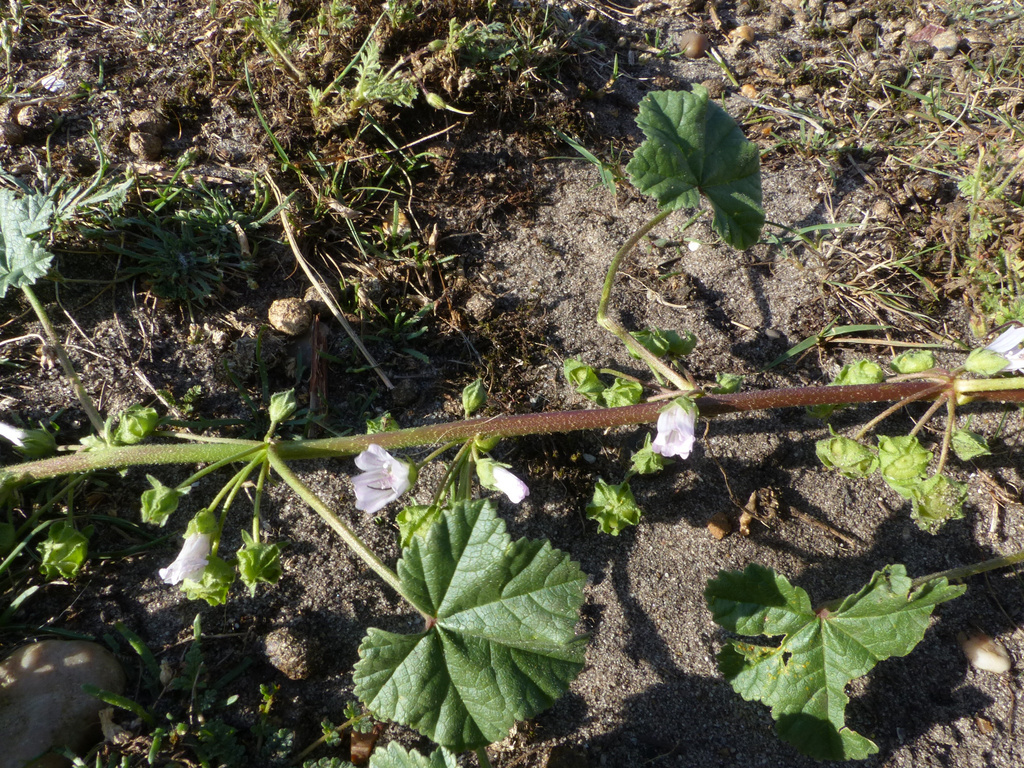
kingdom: Plantae
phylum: Tracheophyta
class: Magnoliopsida
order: Malvales
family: Malvaceae
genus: Malva
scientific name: Malva neglecta
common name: Common mallow
